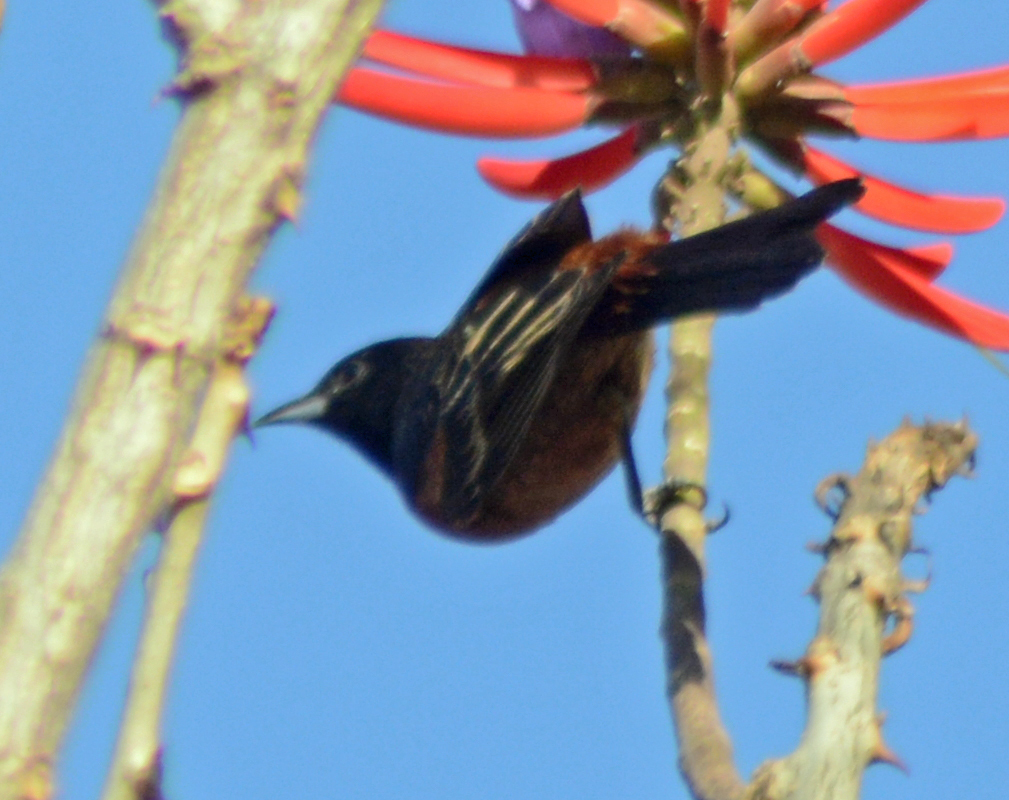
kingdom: Animalia
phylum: Chordata
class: Aves
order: Passeriformes
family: Icteridae
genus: Icterus
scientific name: Icterus spurius
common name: Orchard oriole
